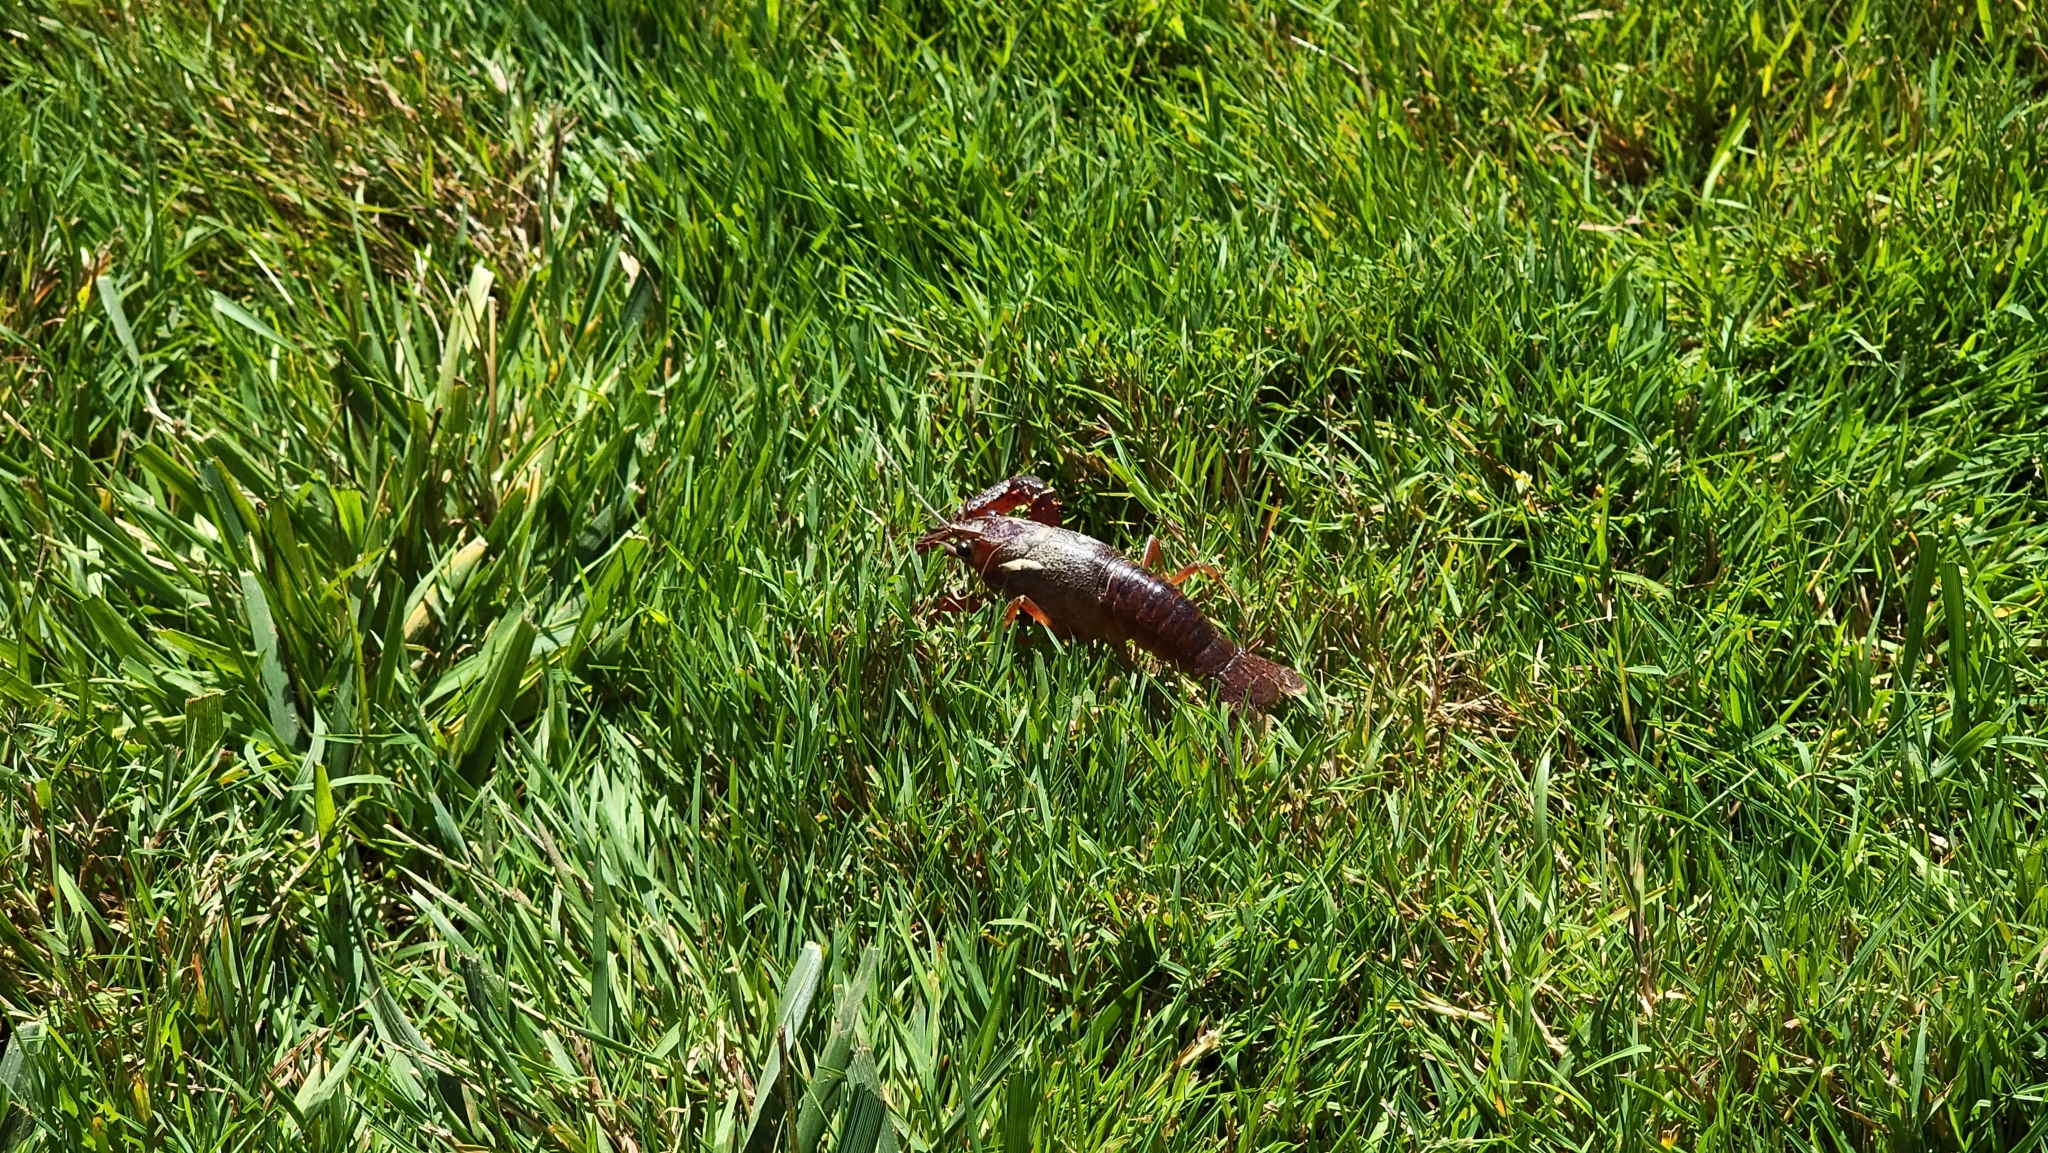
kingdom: Animalia
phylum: Arthropoda
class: Malacostraca
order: Decapoda
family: Cambaridae
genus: Procambarus
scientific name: Procambarus clarkii
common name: Red swamp crayfish
